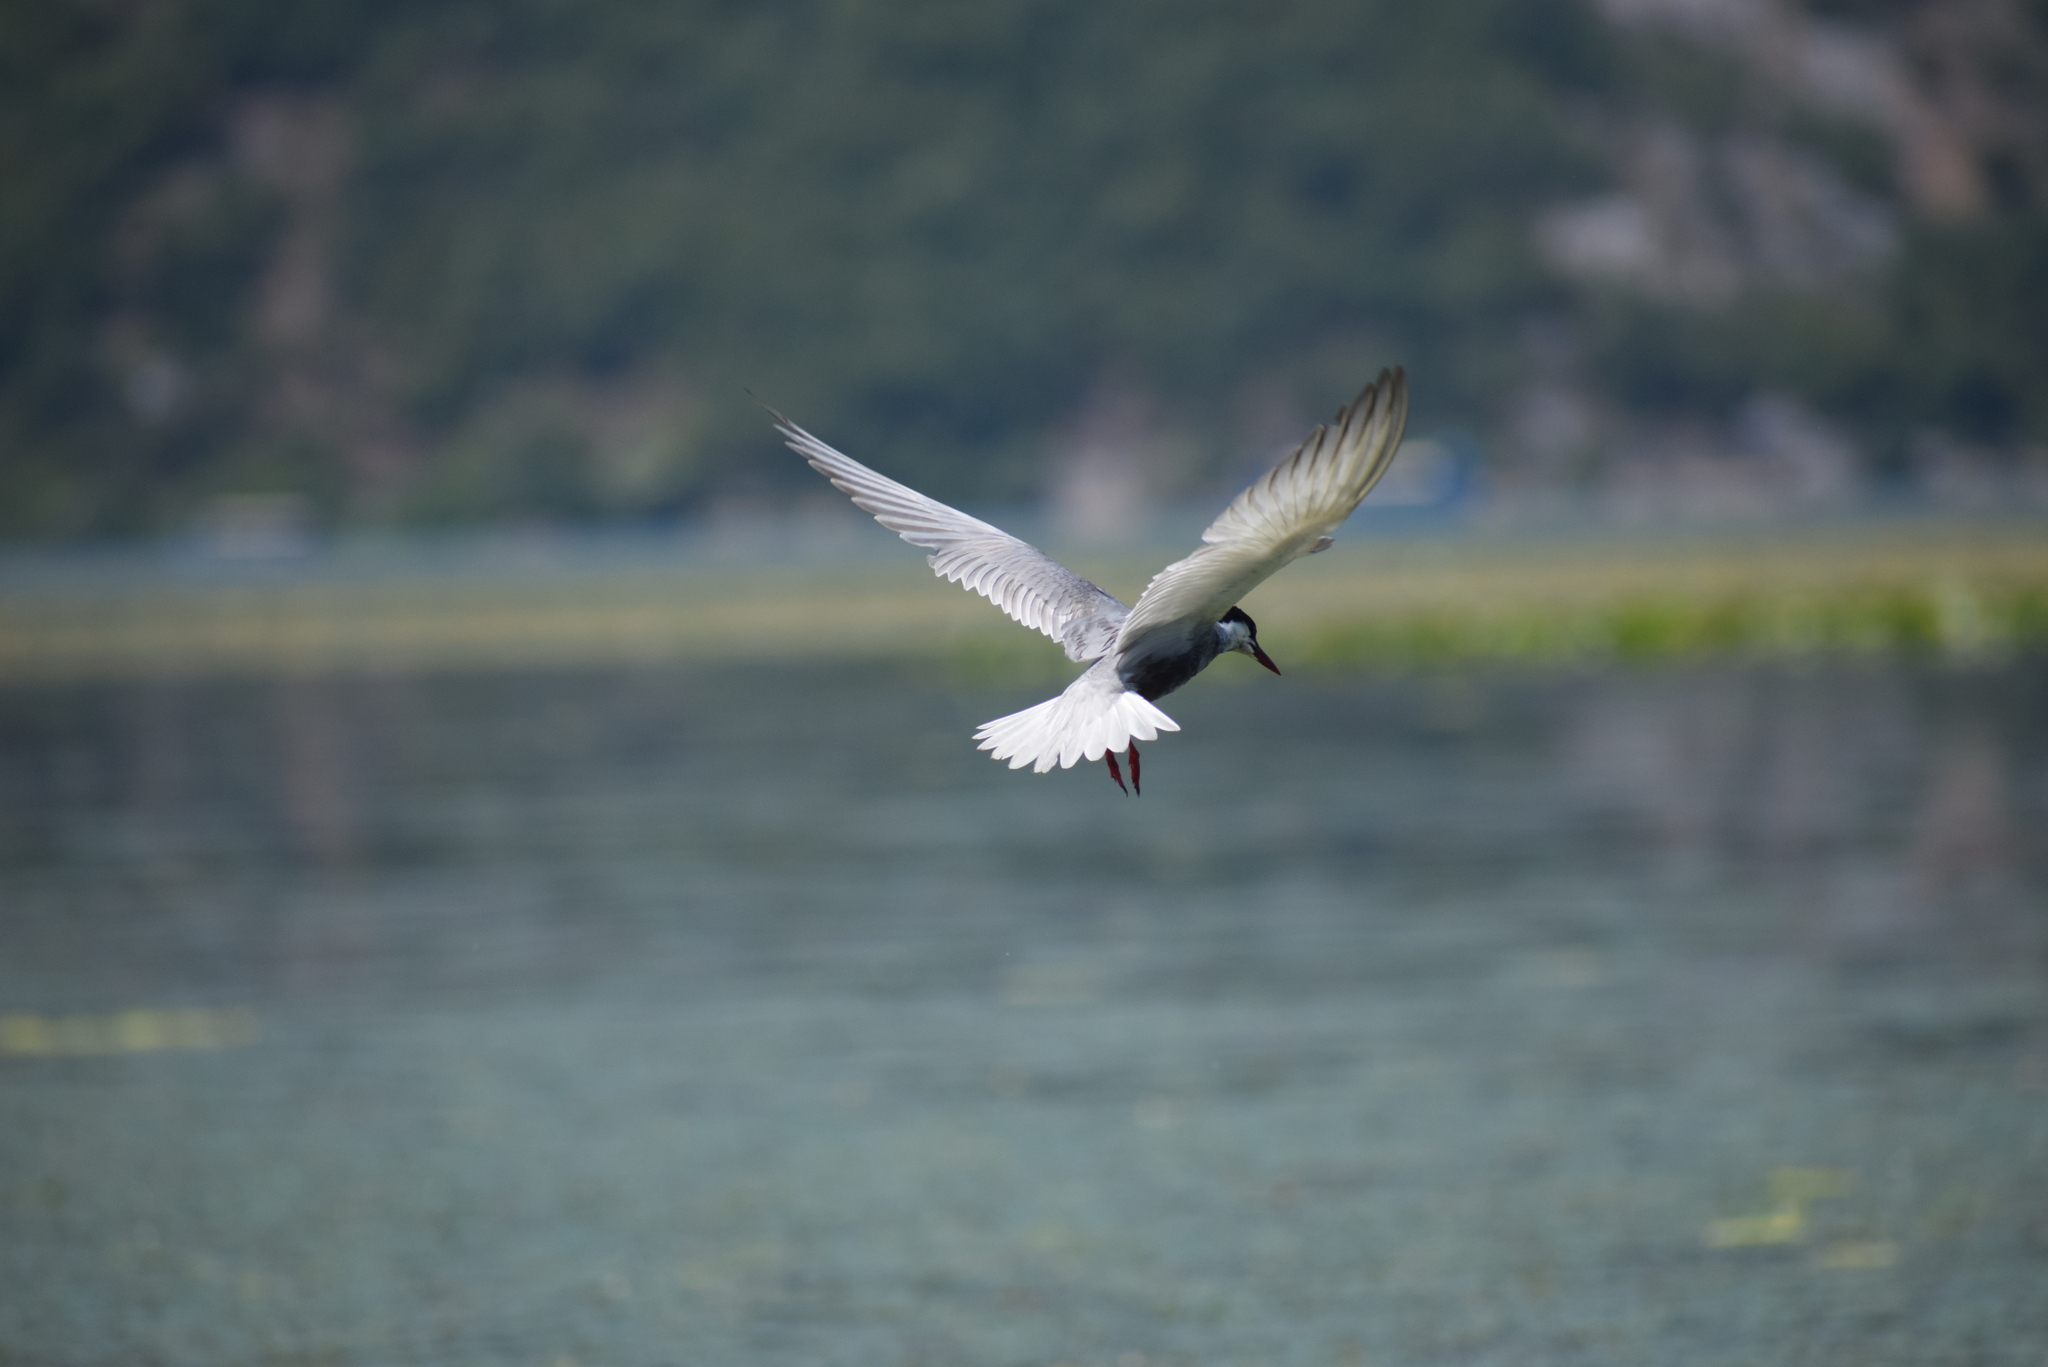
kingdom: Animalia
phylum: Chordata
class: Aves
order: Charadriiformes
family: Laridae
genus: Chlidonias
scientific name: Chlidonias hybrida
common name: Whiskered tern
